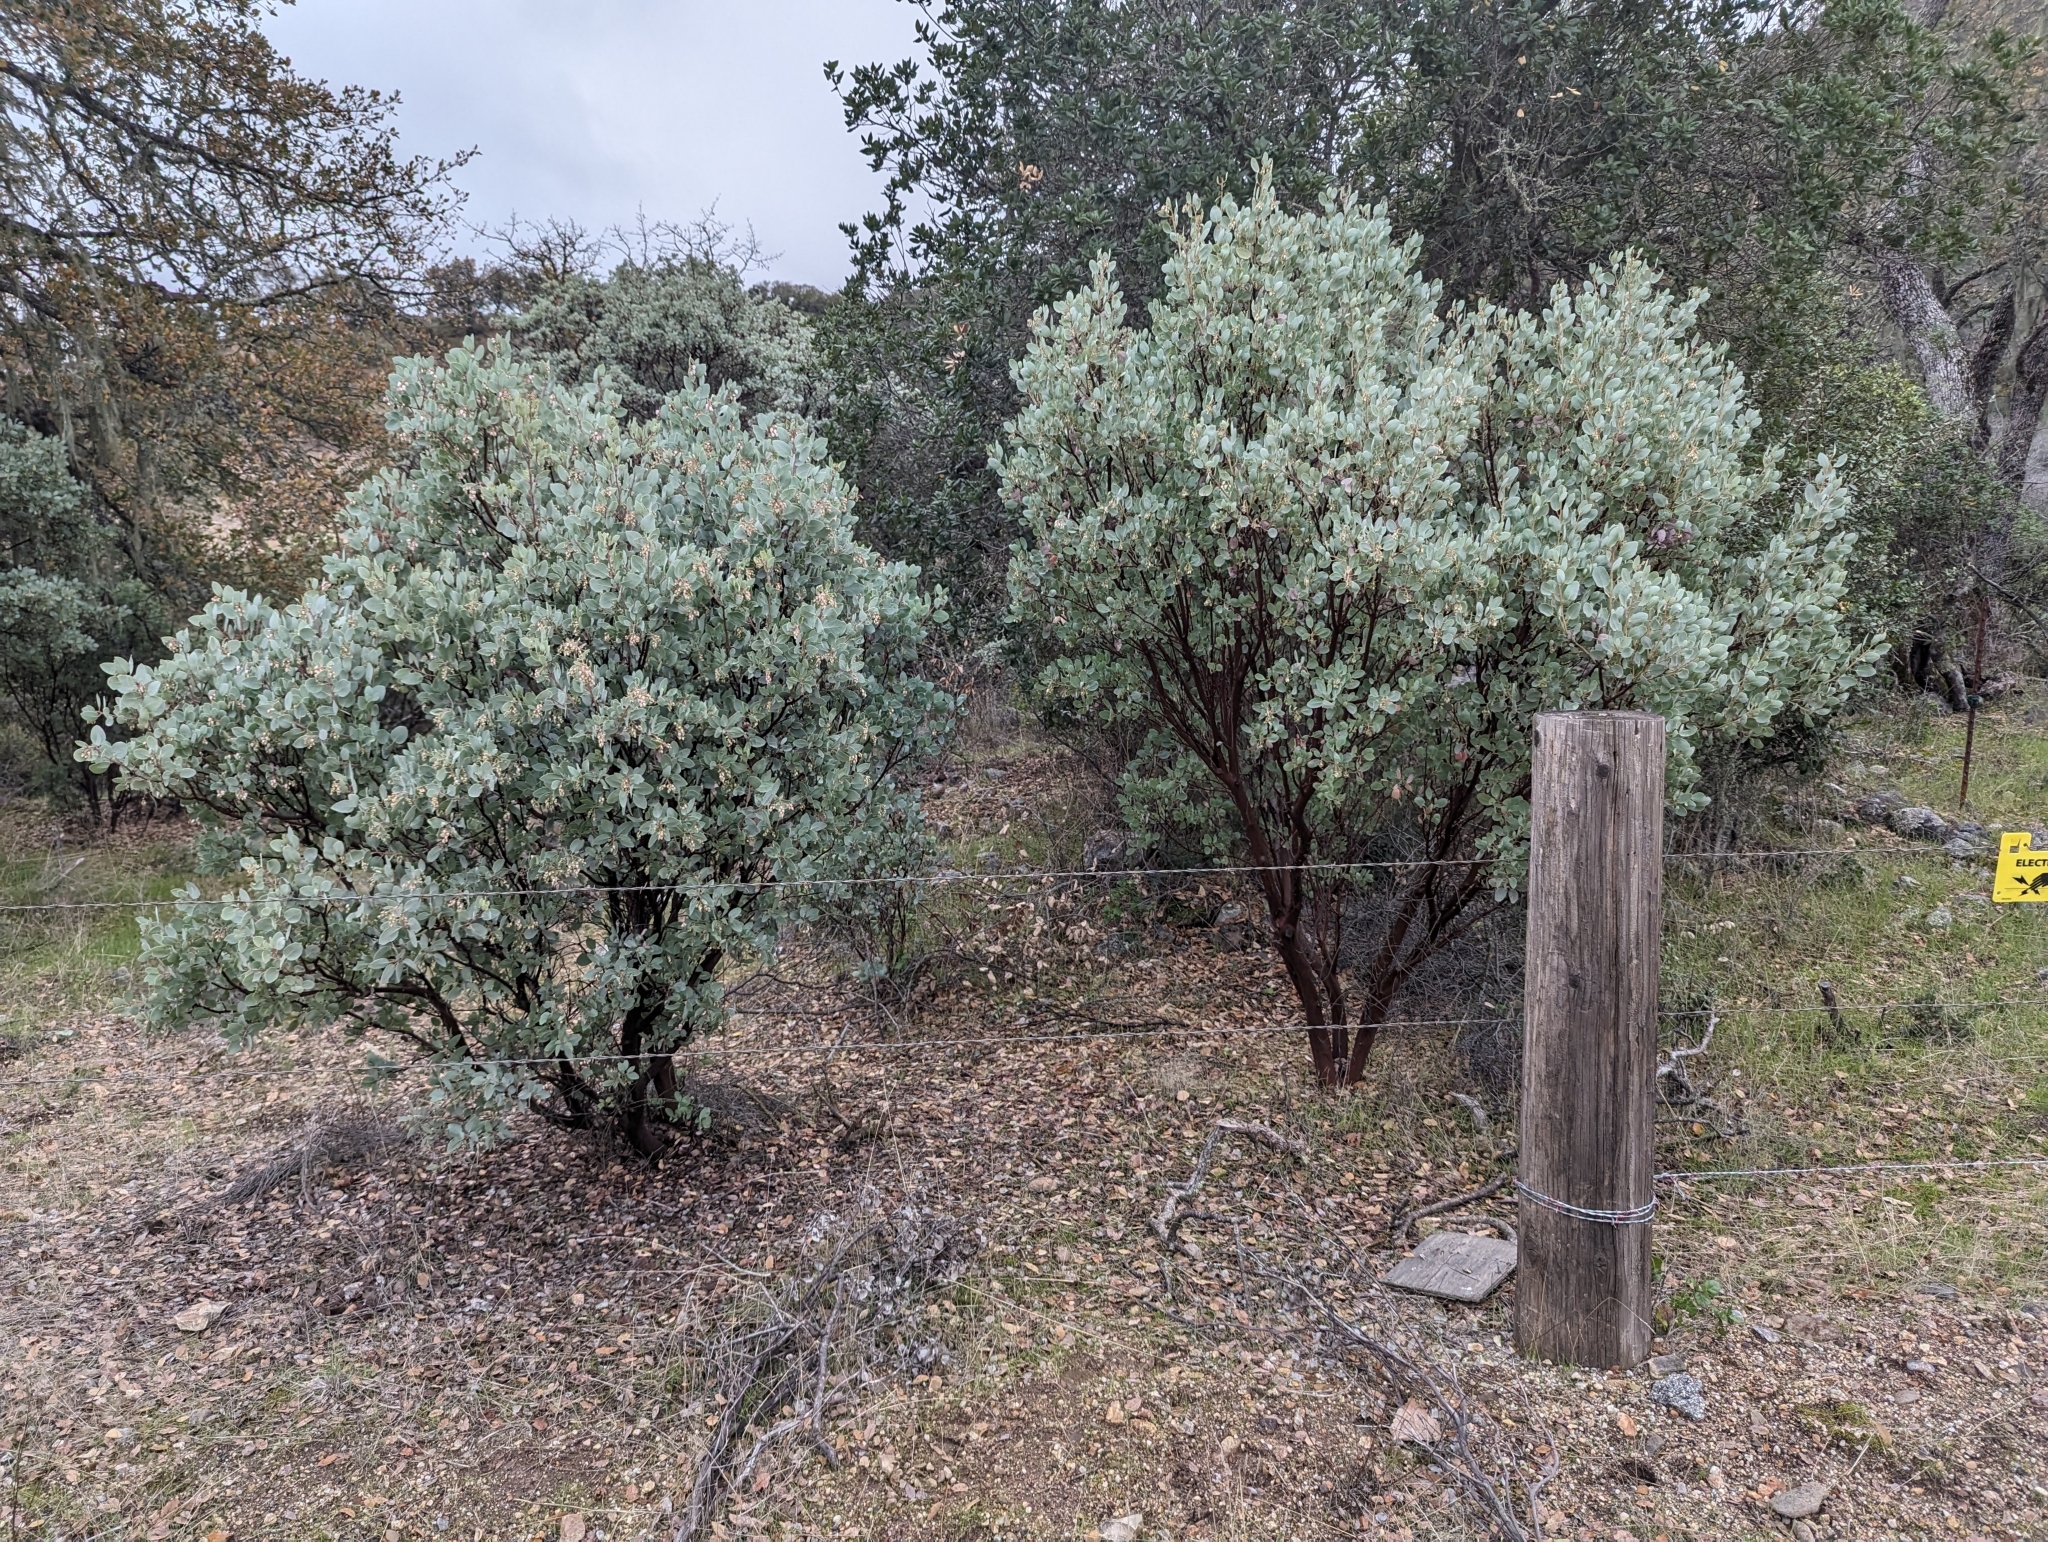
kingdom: Plantae
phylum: Tracheophyta
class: Magnoliopsida
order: Ericales
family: Ericaceae
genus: Arctostaphylos
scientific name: Arctostaphylos glauca
